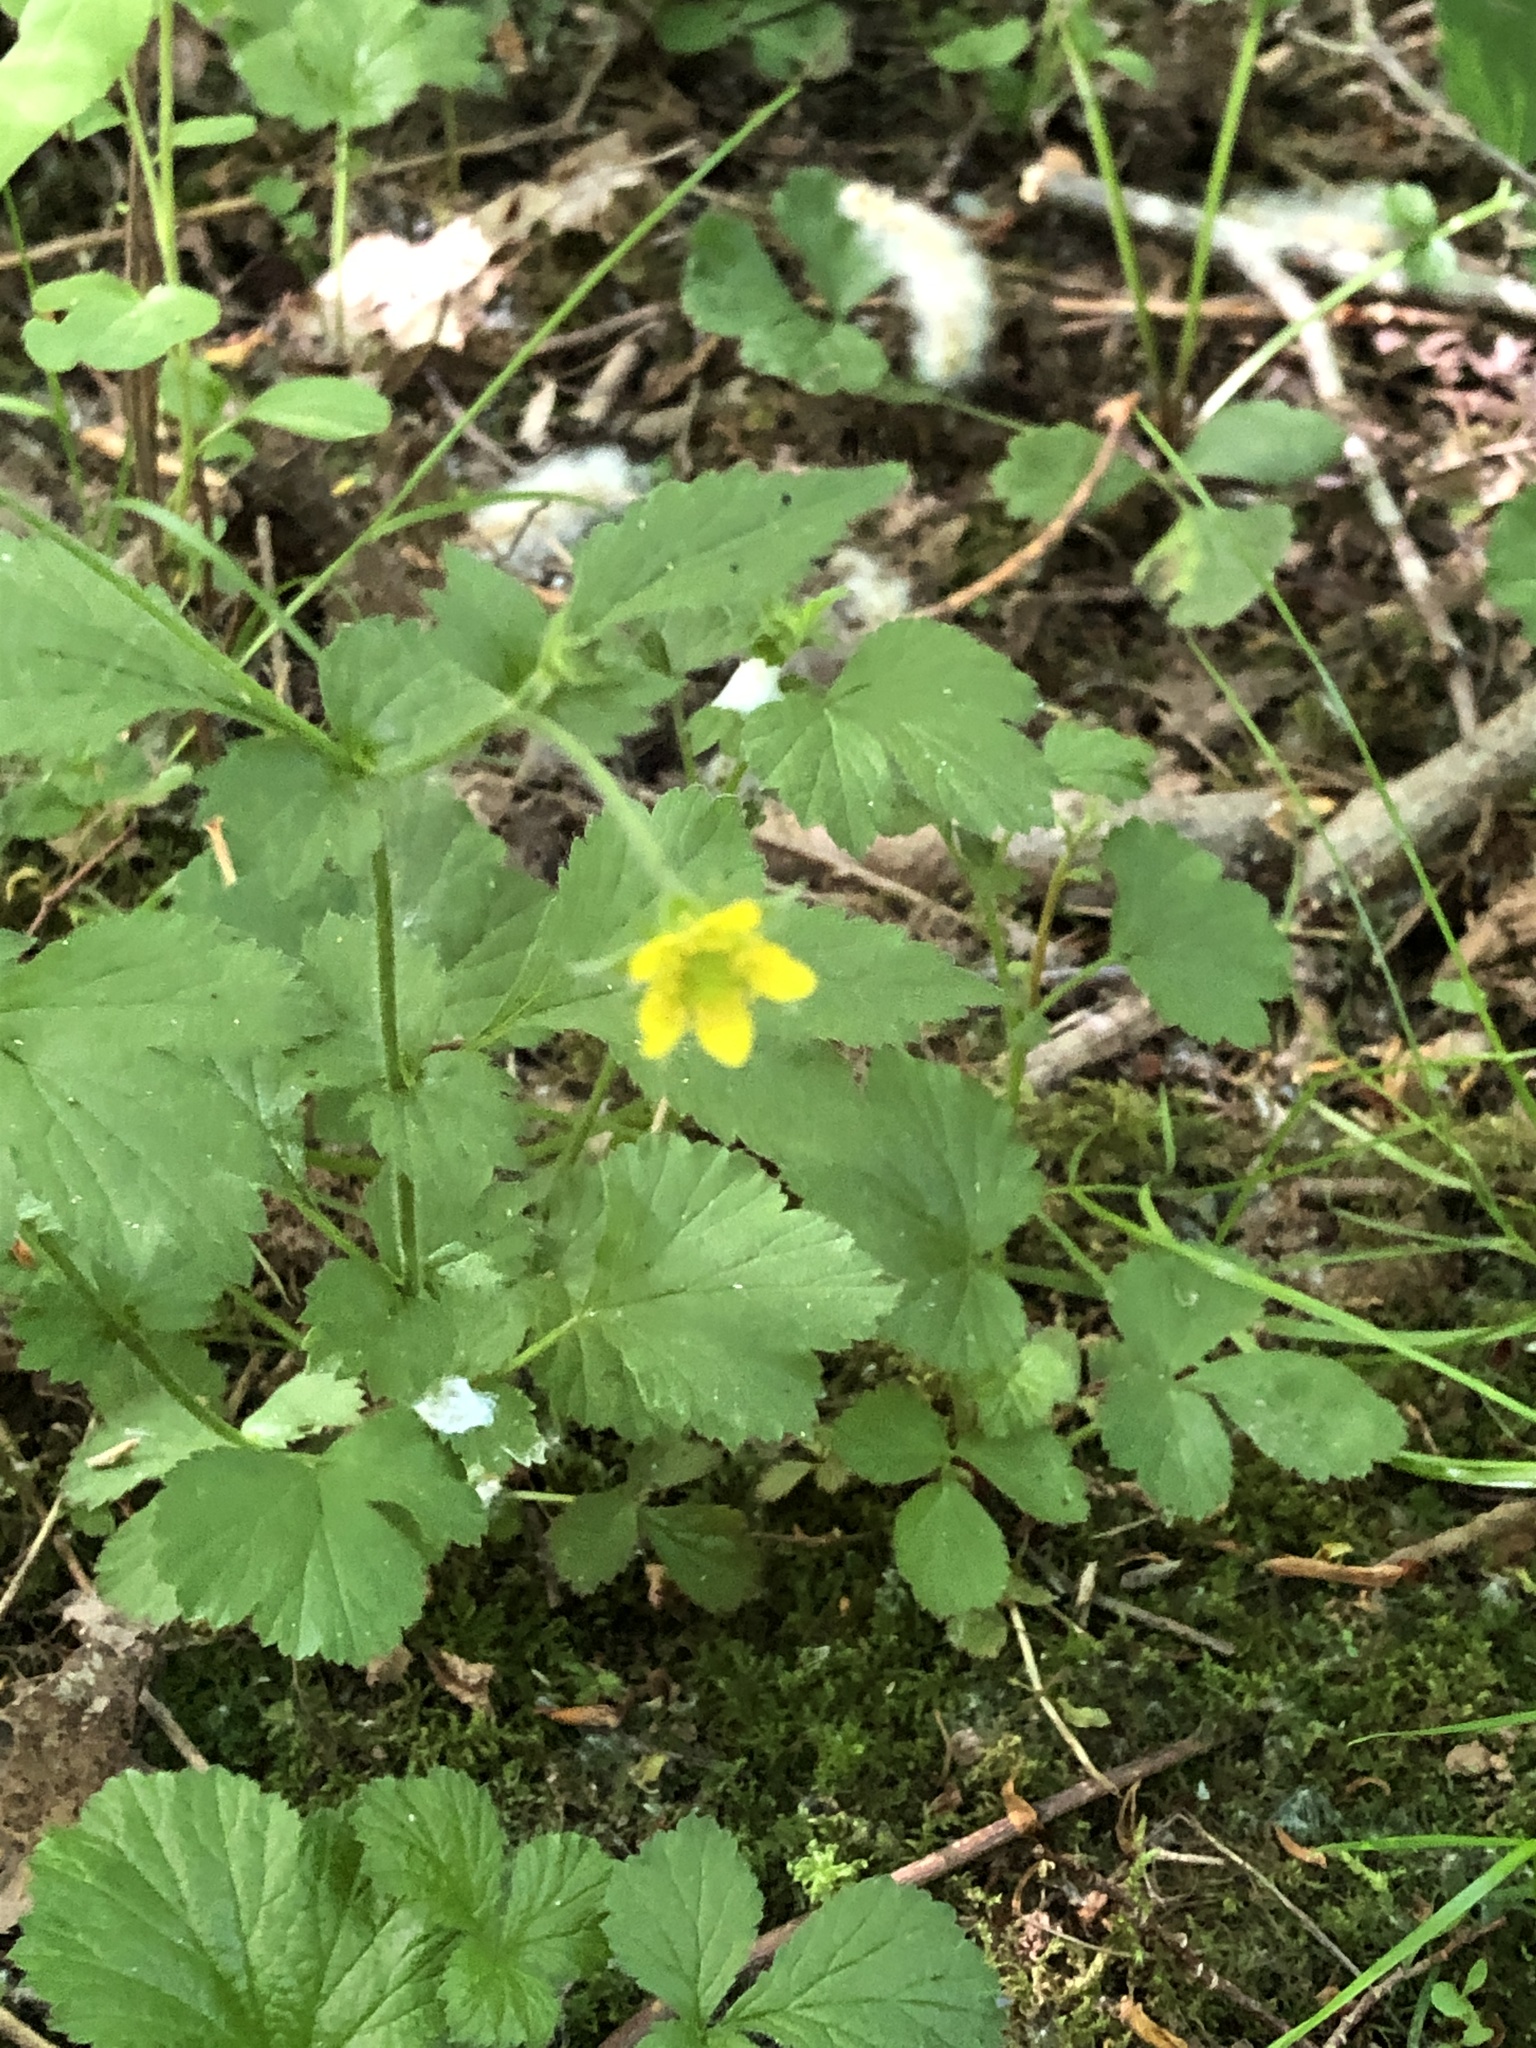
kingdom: Plantae
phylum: Tracheophyta
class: Magnoliopsida
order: Rosales
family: Rosaceae
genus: Geum
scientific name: Geum urbanum
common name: Wood avens
